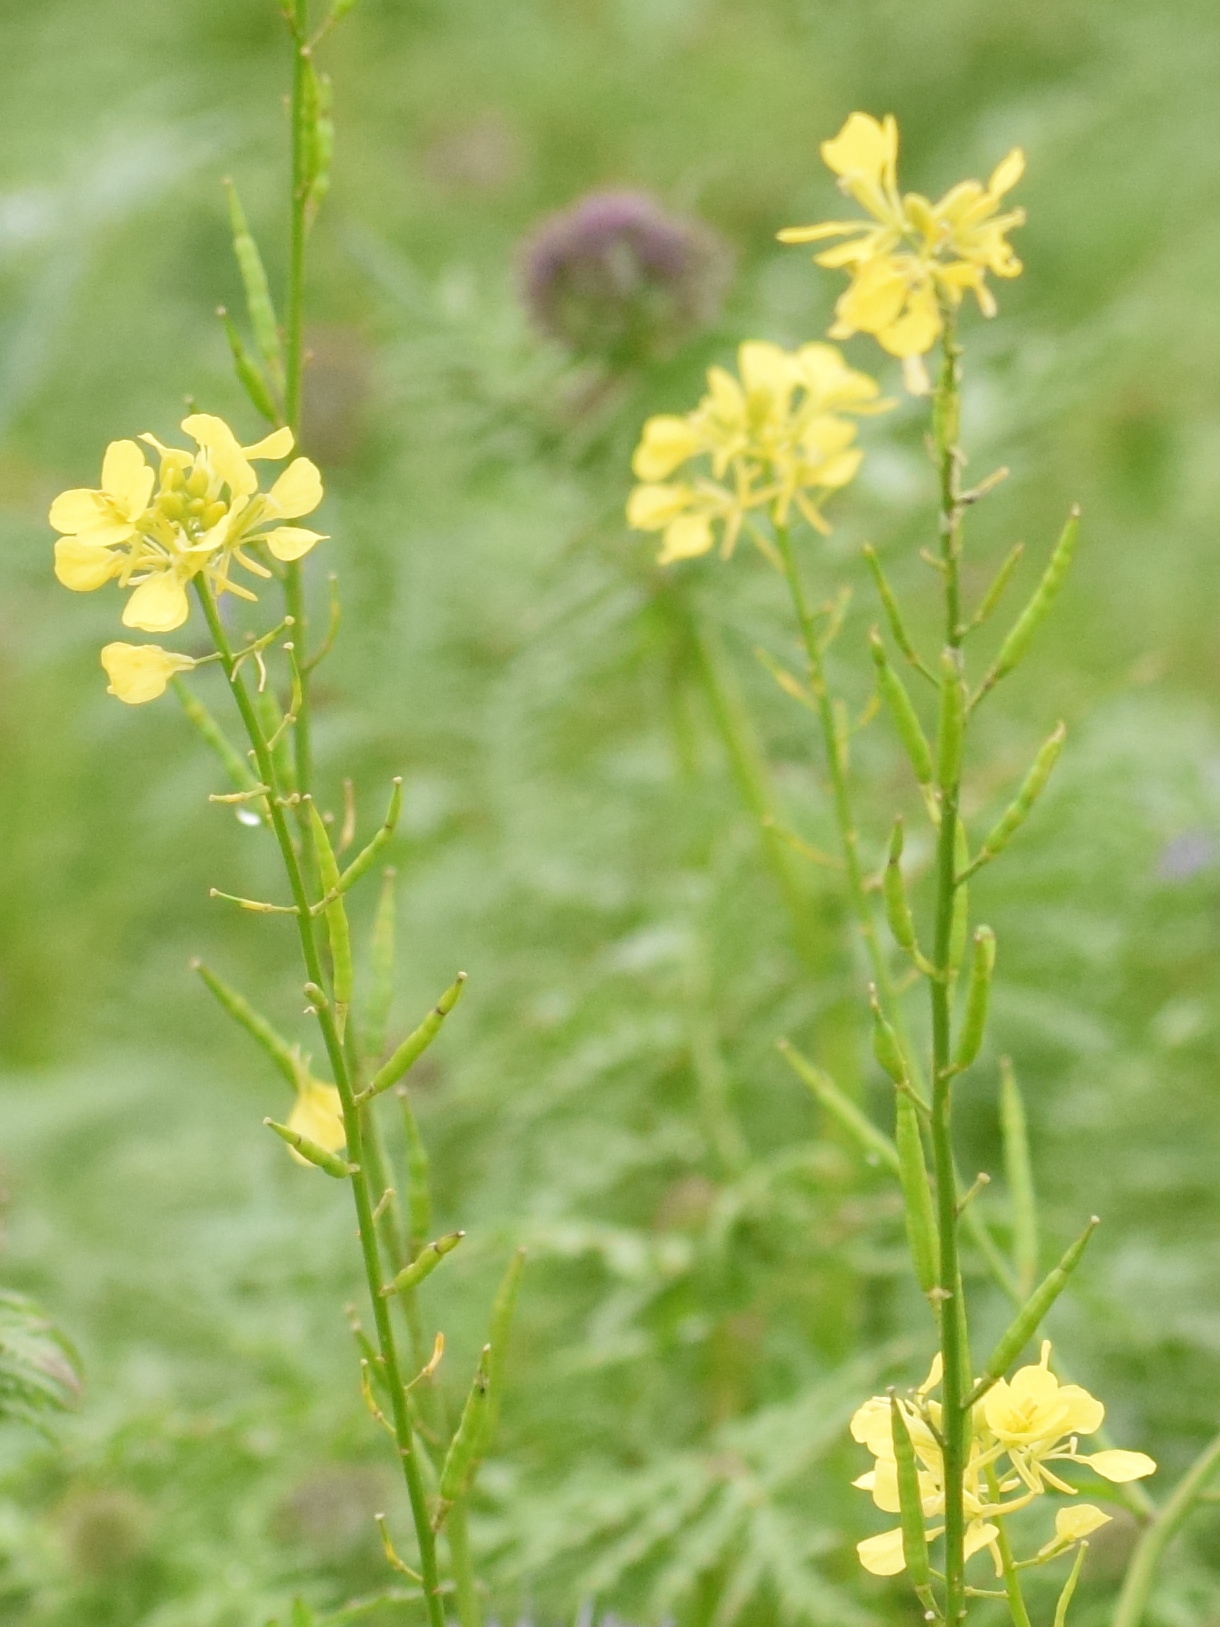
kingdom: Plantae
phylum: Tracheophyta
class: Magnoliopsida
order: Brassicales
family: Brassicaceae
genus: Sinapis
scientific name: Sinapis arvensis
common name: Charlock
